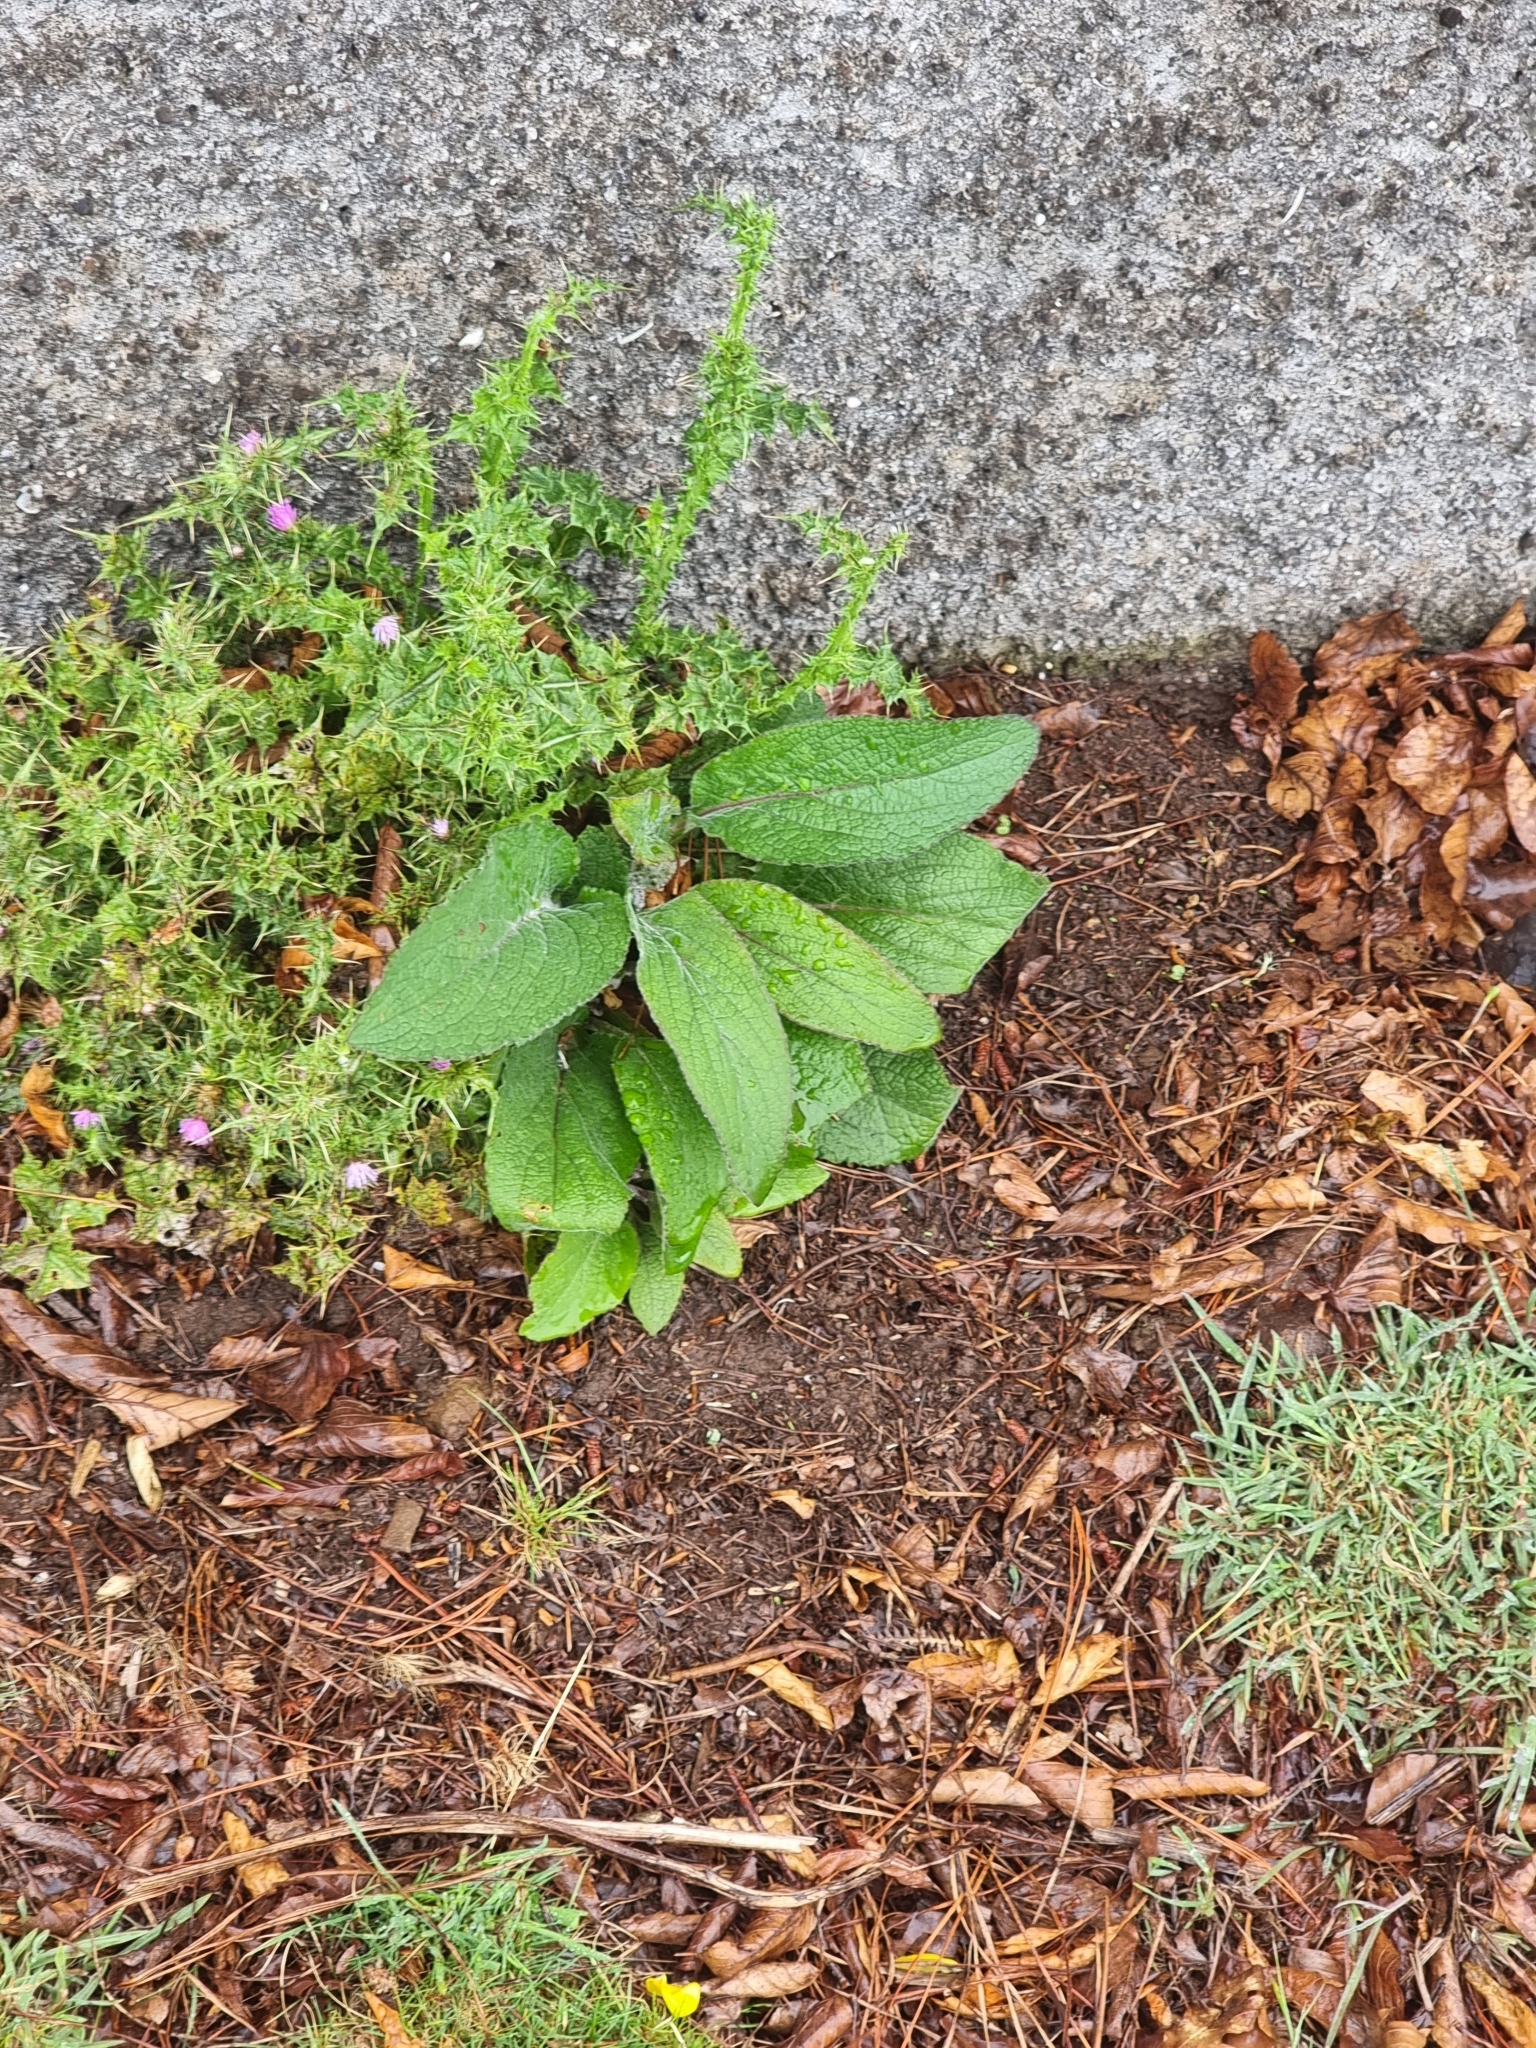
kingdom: Plantae
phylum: Tracheophyta
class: Magnoliopsida
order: Lamiales
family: Plantaginaceae
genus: Digitalis
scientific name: Digitalis purpurea
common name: Foxglove
